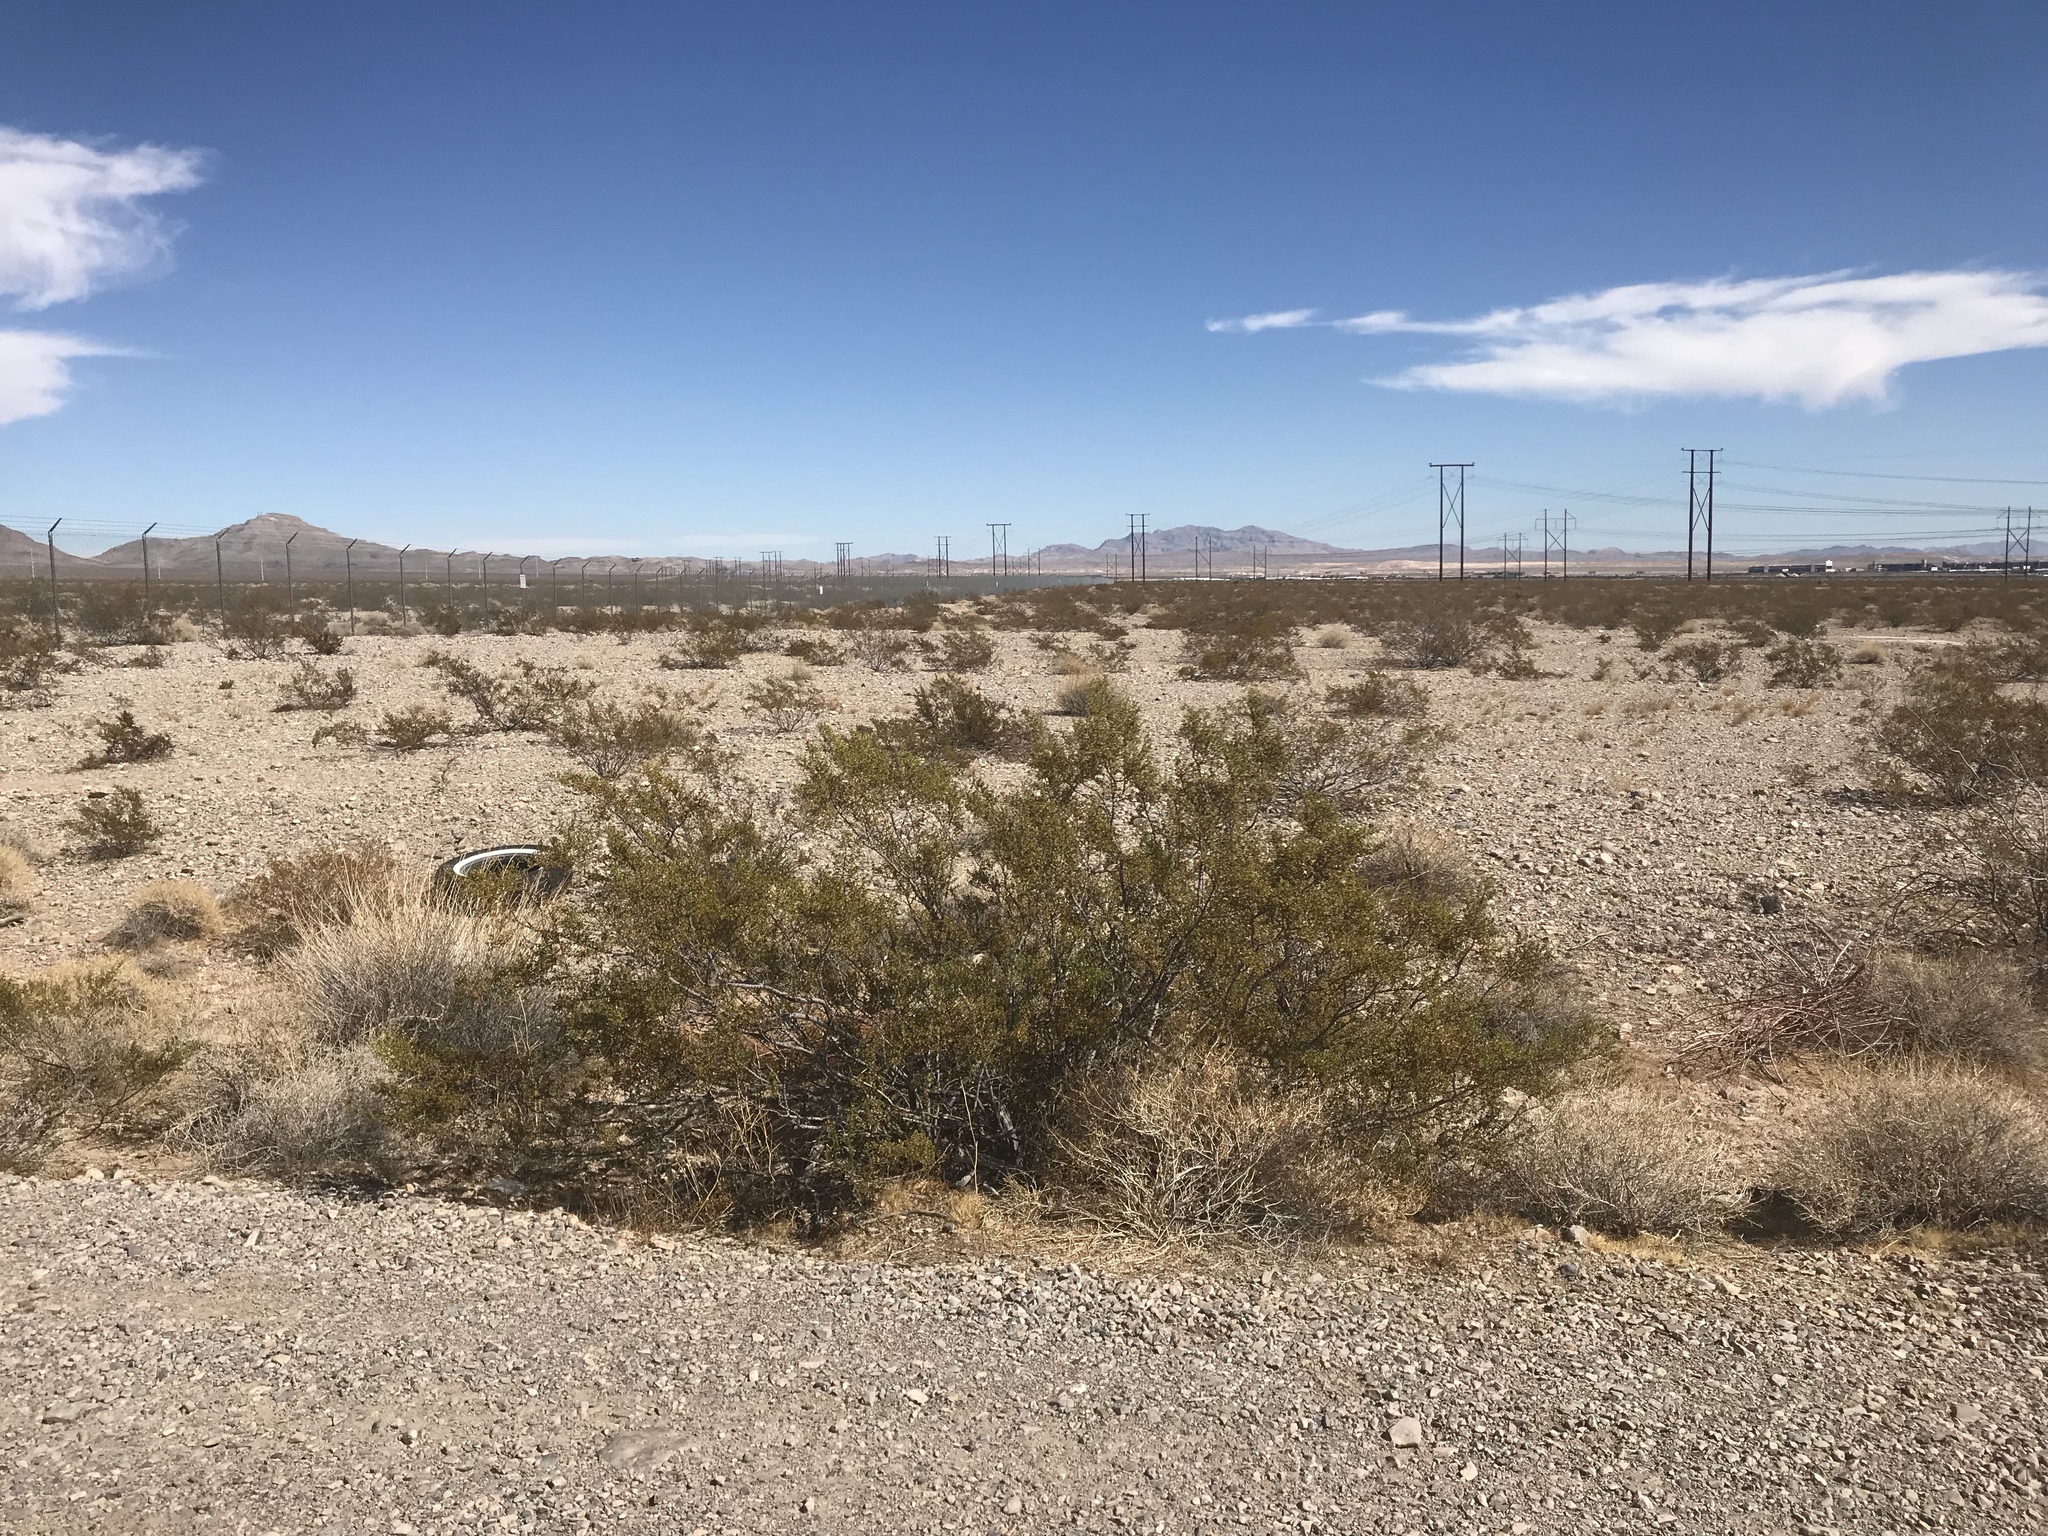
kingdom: Plantae
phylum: Tracheophyta
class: Magnoliopsida
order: Zygophyllales
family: Zygophyllaceae
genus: Larrea
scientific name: Larrea tridentata
